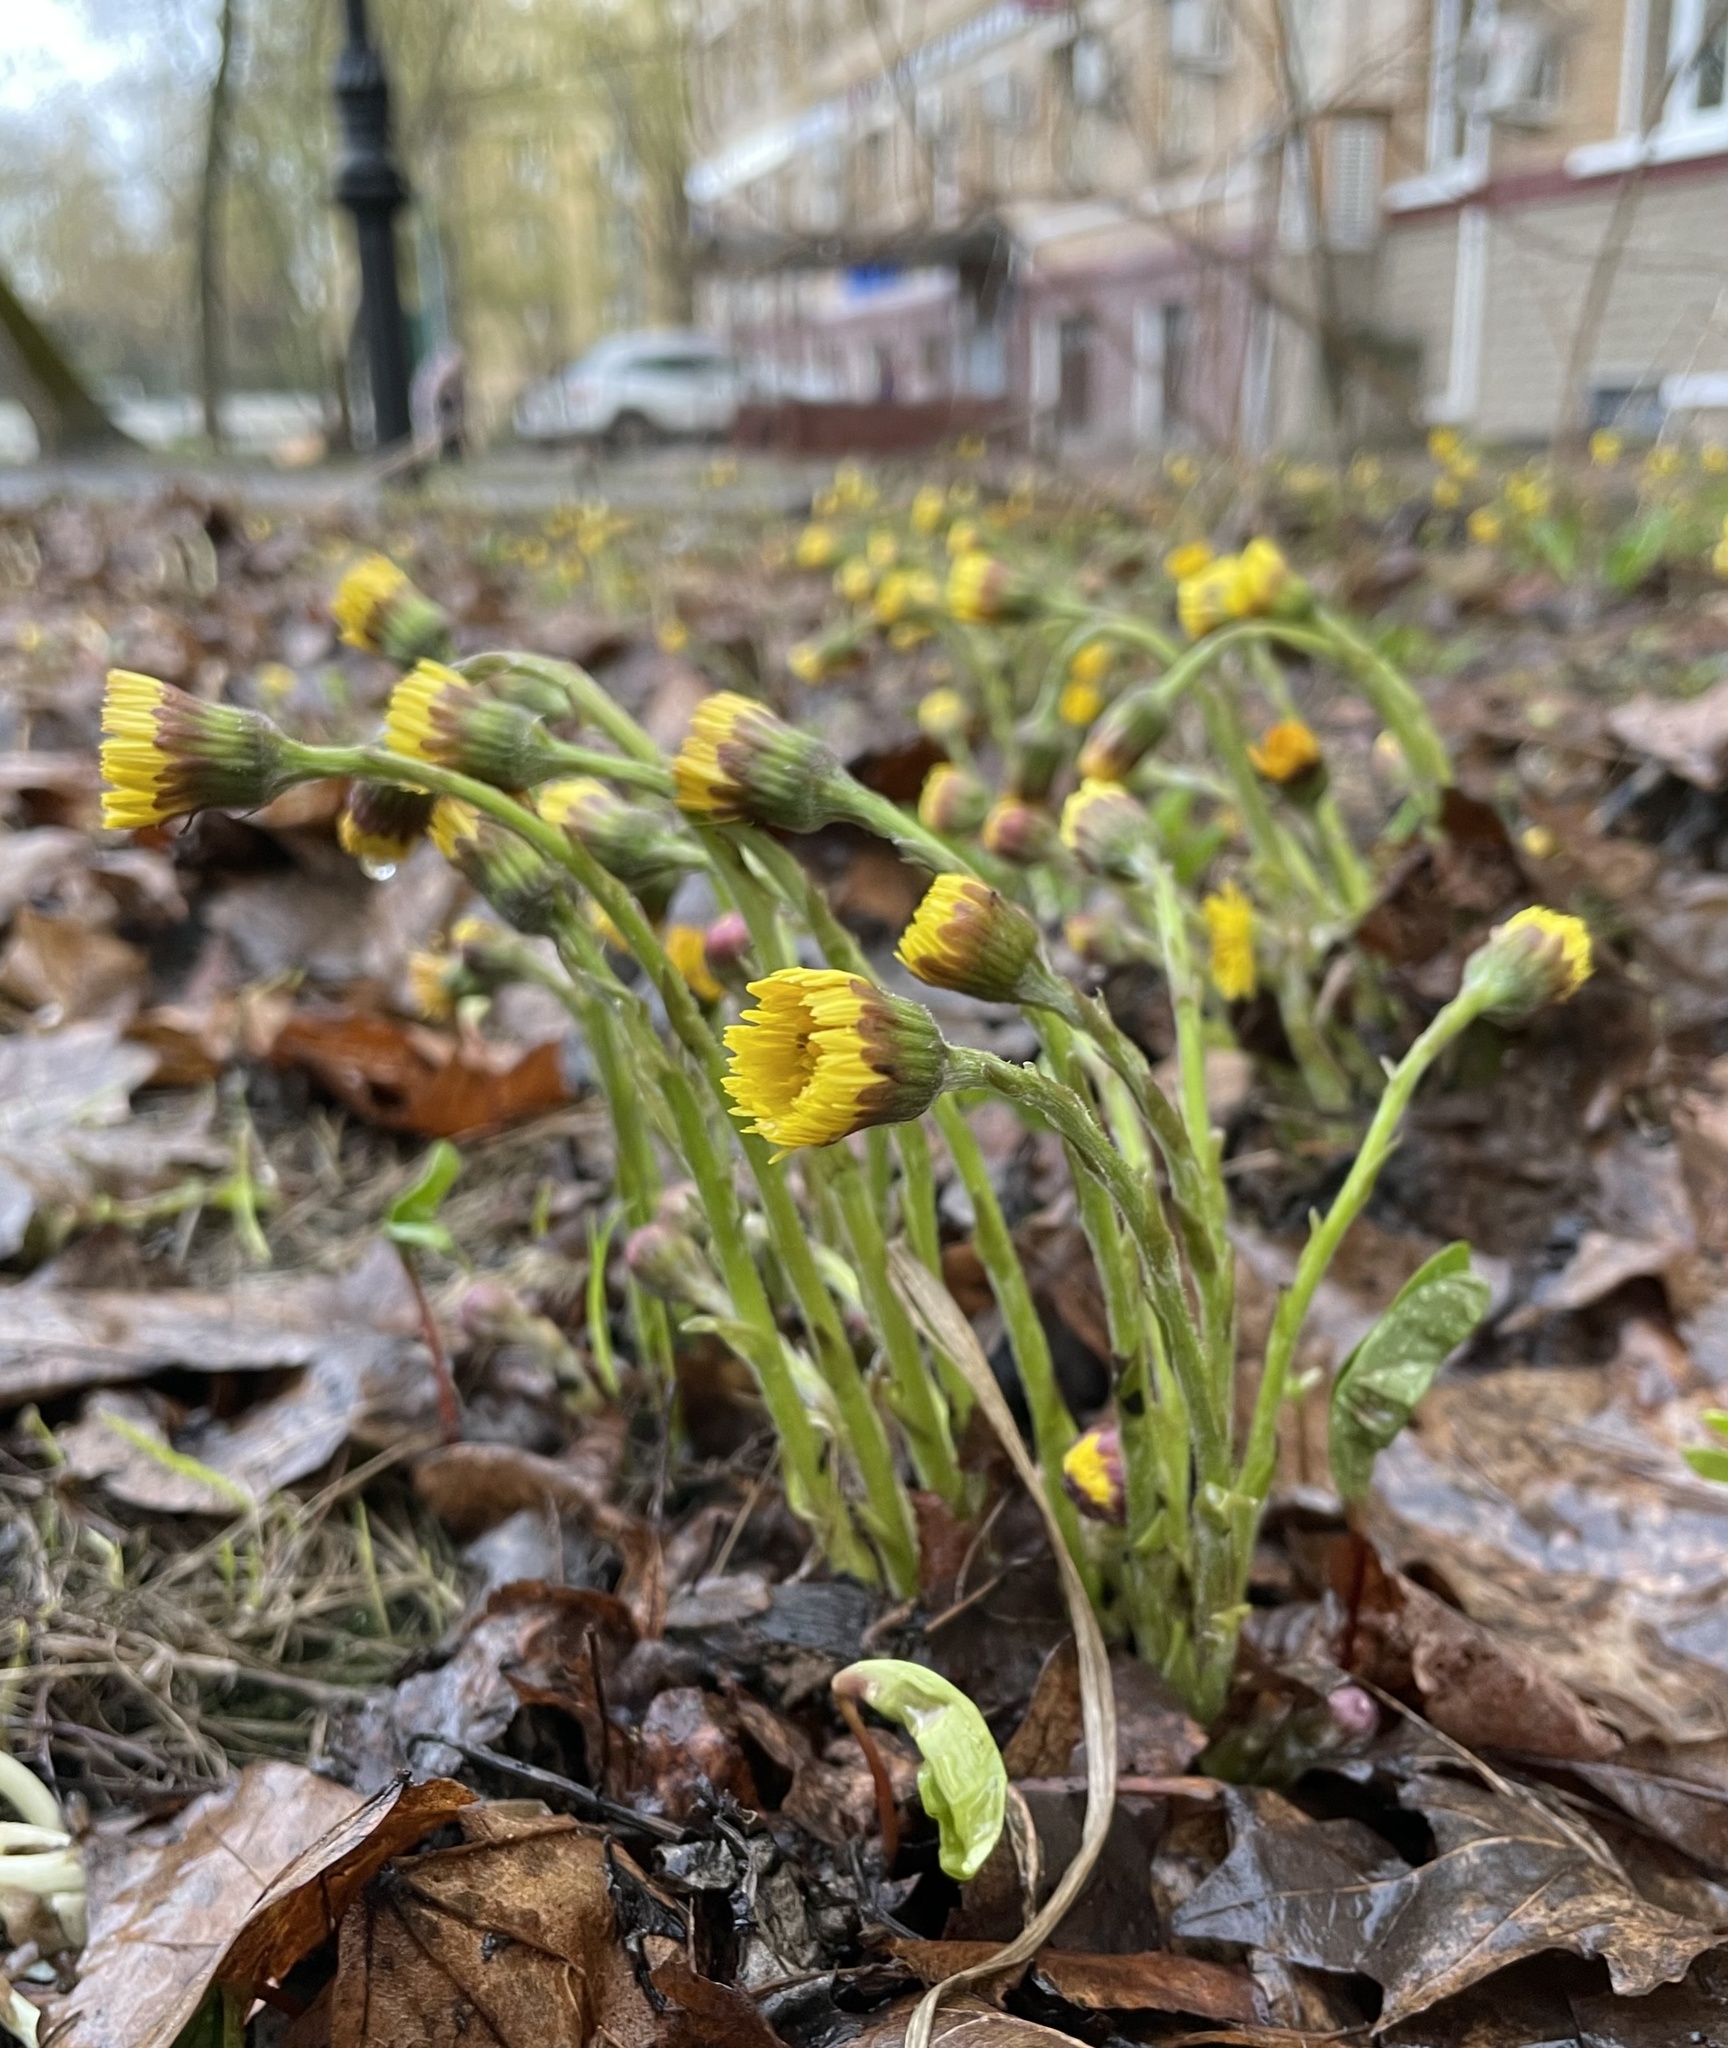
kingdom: Plantae
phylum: Tracheophyta
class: Magnoliopsida
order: Asterales
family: Asteraceae
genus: Tussilago
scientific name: Tussilago farfara
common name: Coltsfoot
